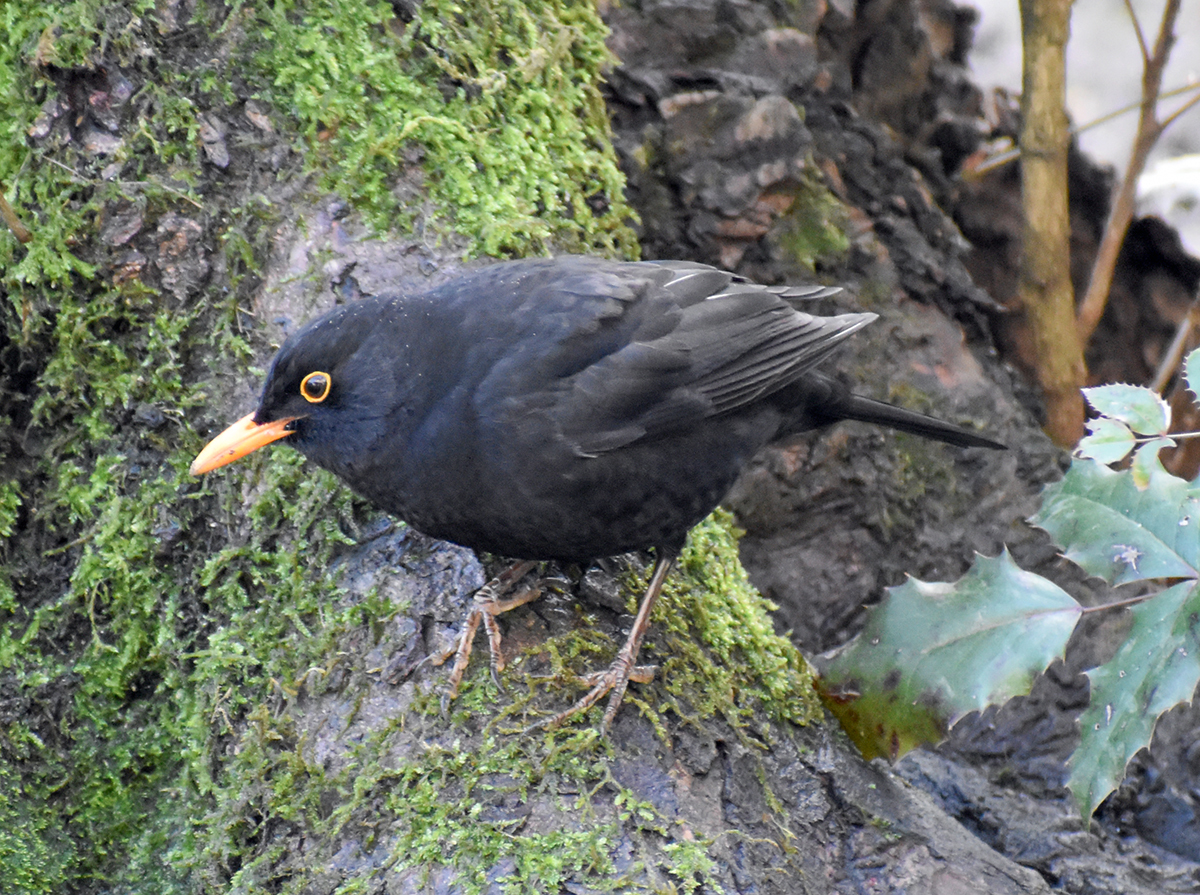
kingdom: Animalia
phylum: Chordata
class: Aves
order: Passeriformes
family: Turdidae
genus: Turdus
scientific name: Turdus merula
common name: Common blackbird
